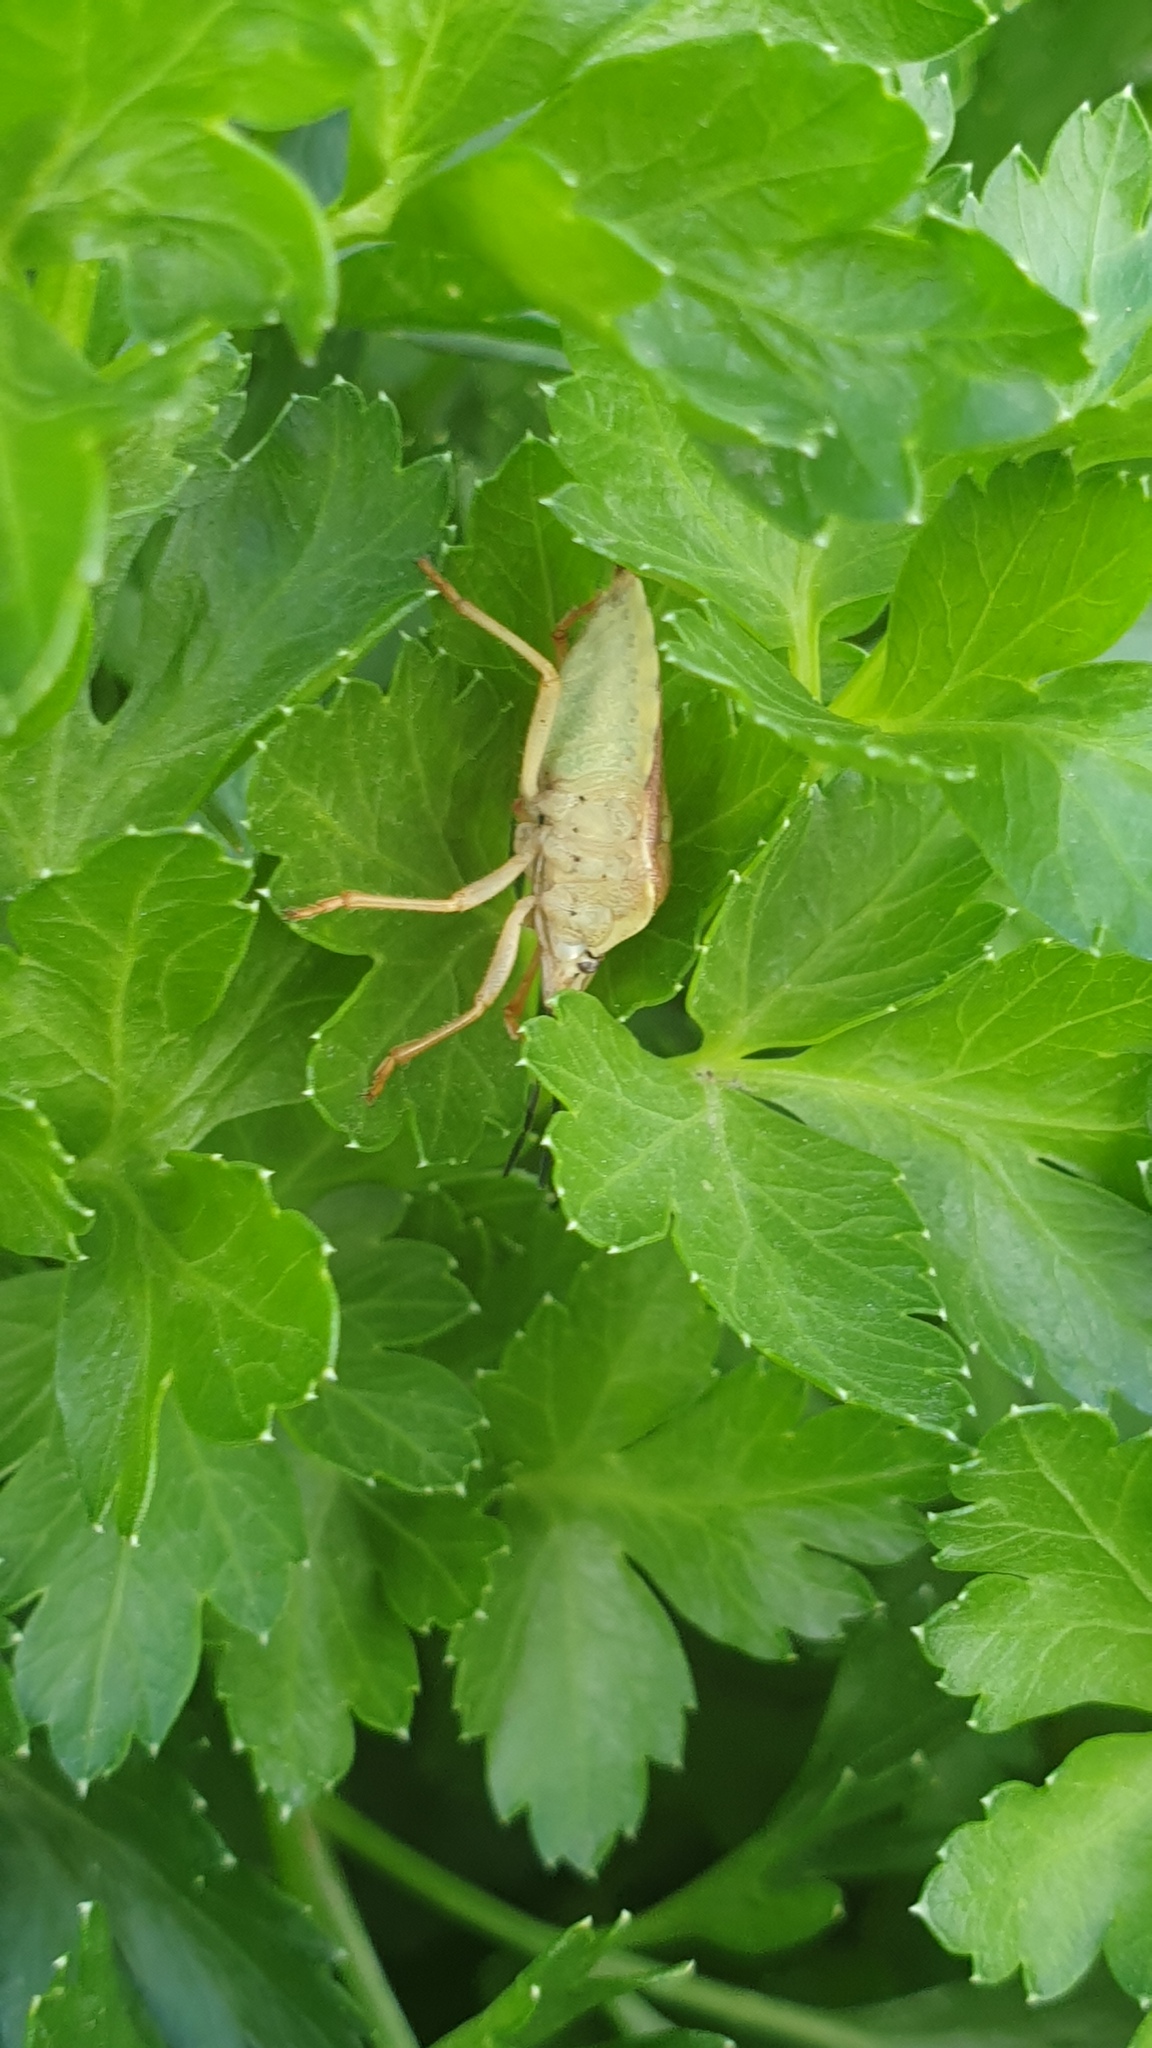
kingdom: Animalia
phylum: Arthropoda
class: Insecta
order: Hemiptera
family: Pentatomidae
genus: Dolycoris
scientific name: Dolycoris baccarum
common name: Sloe bug
